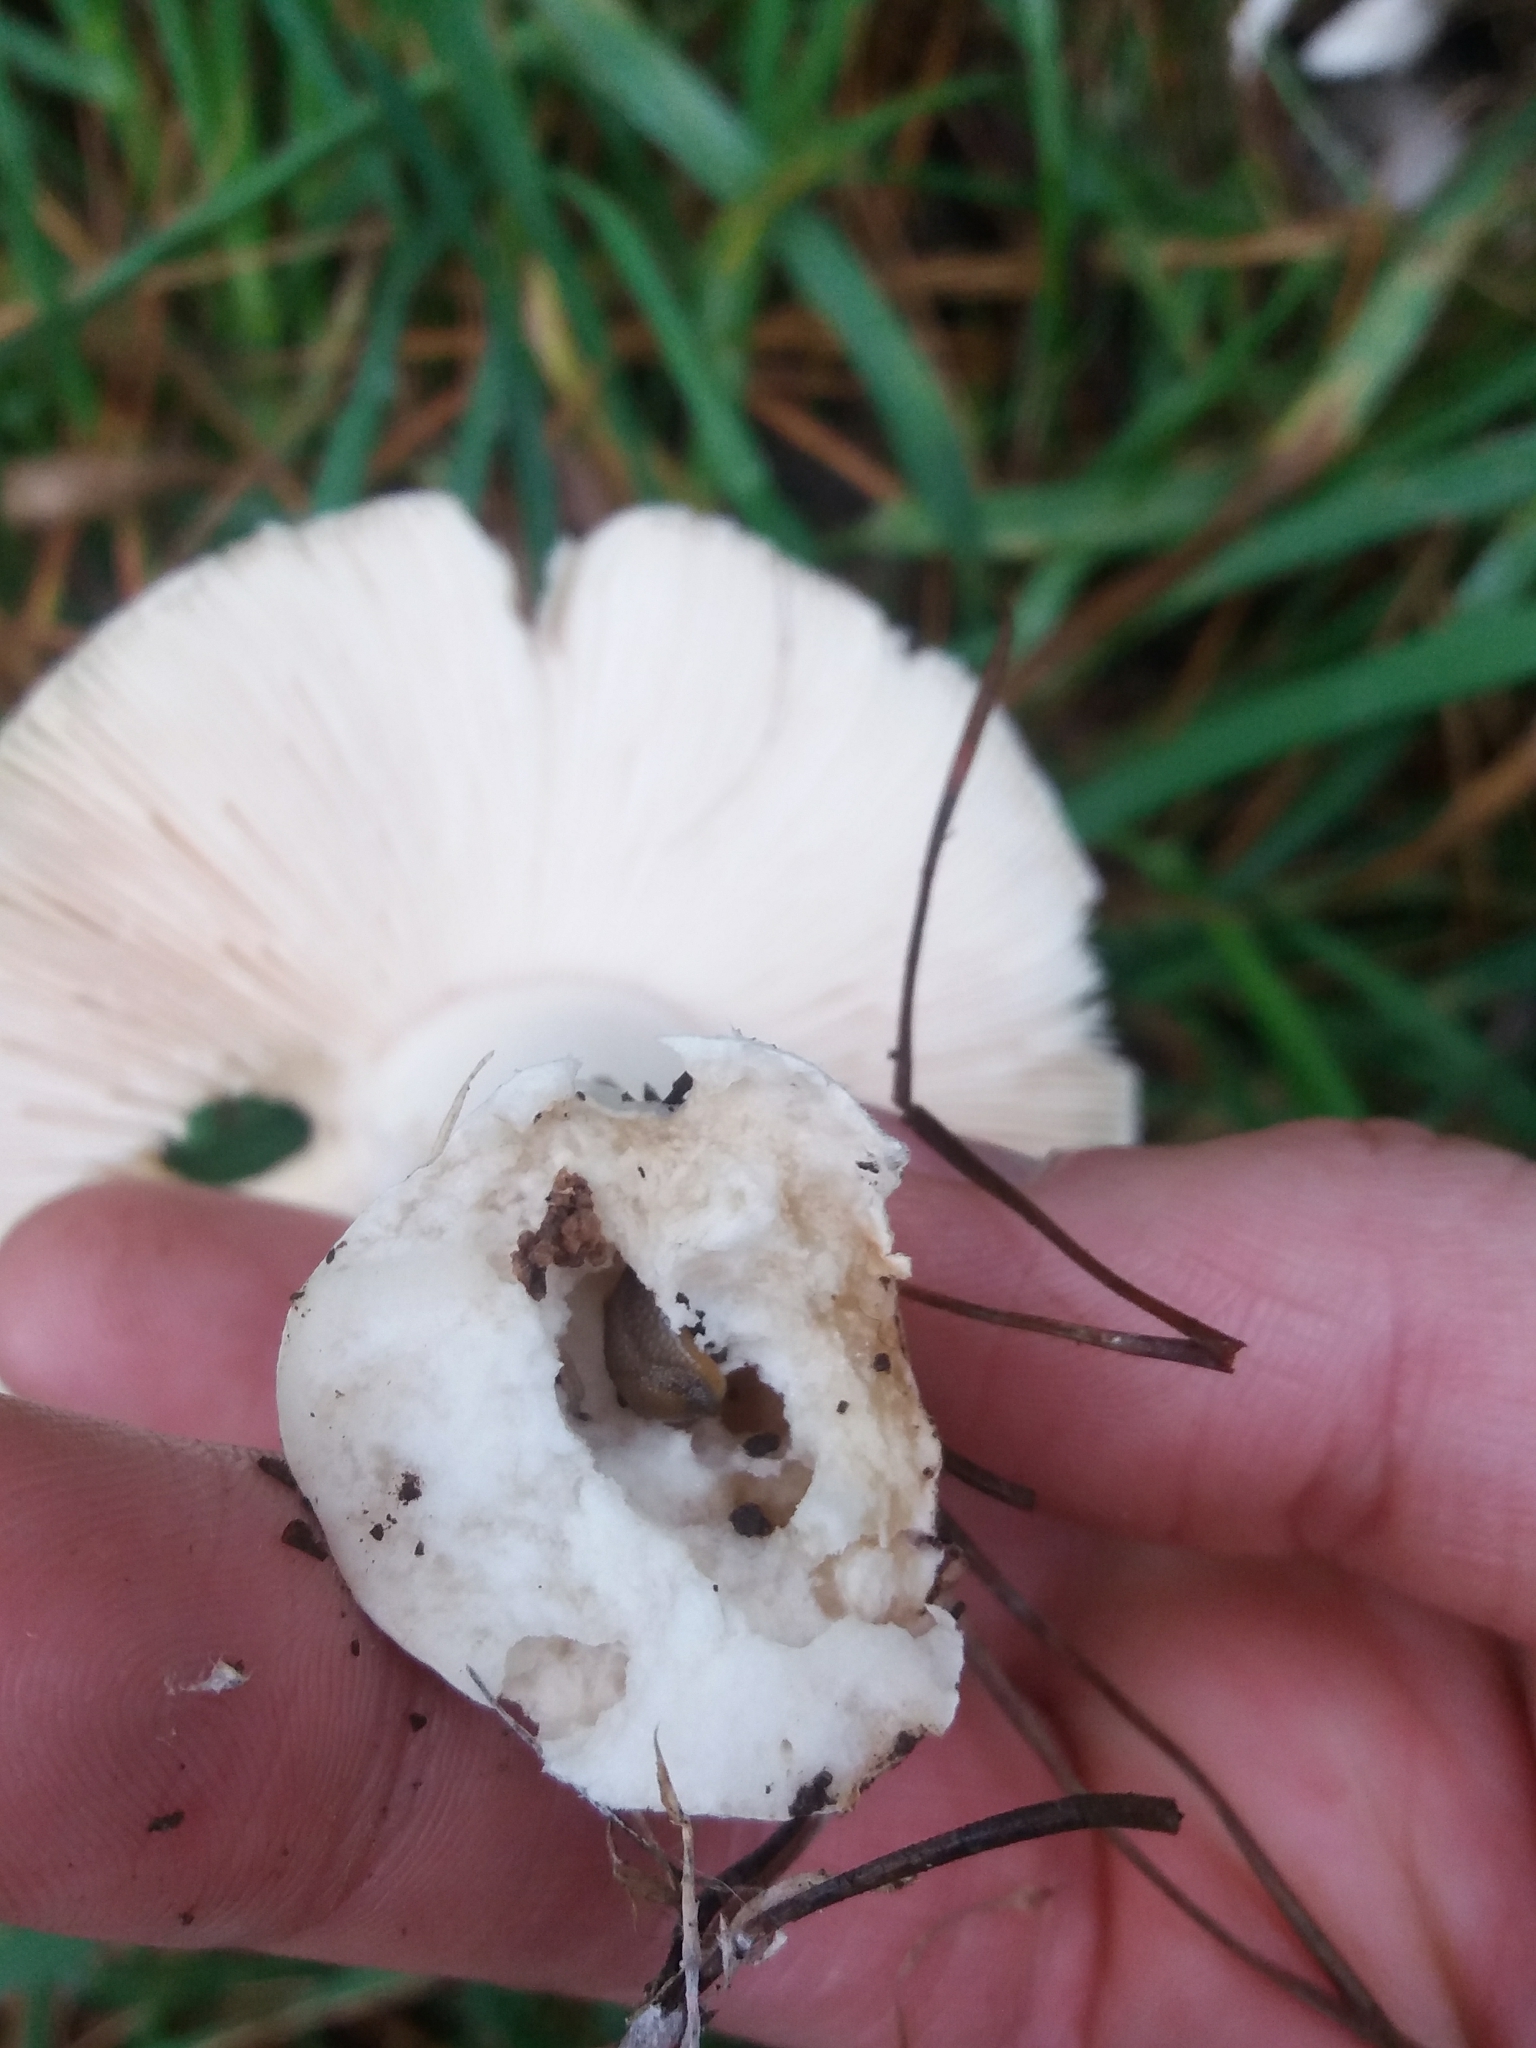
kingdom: Fungi
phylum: Basidiomycota
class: Agaricomycetes
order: Agaricales
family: Amanitaceae
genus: Amanita
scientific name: Amanita gemmata
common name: Jewelled amanita
